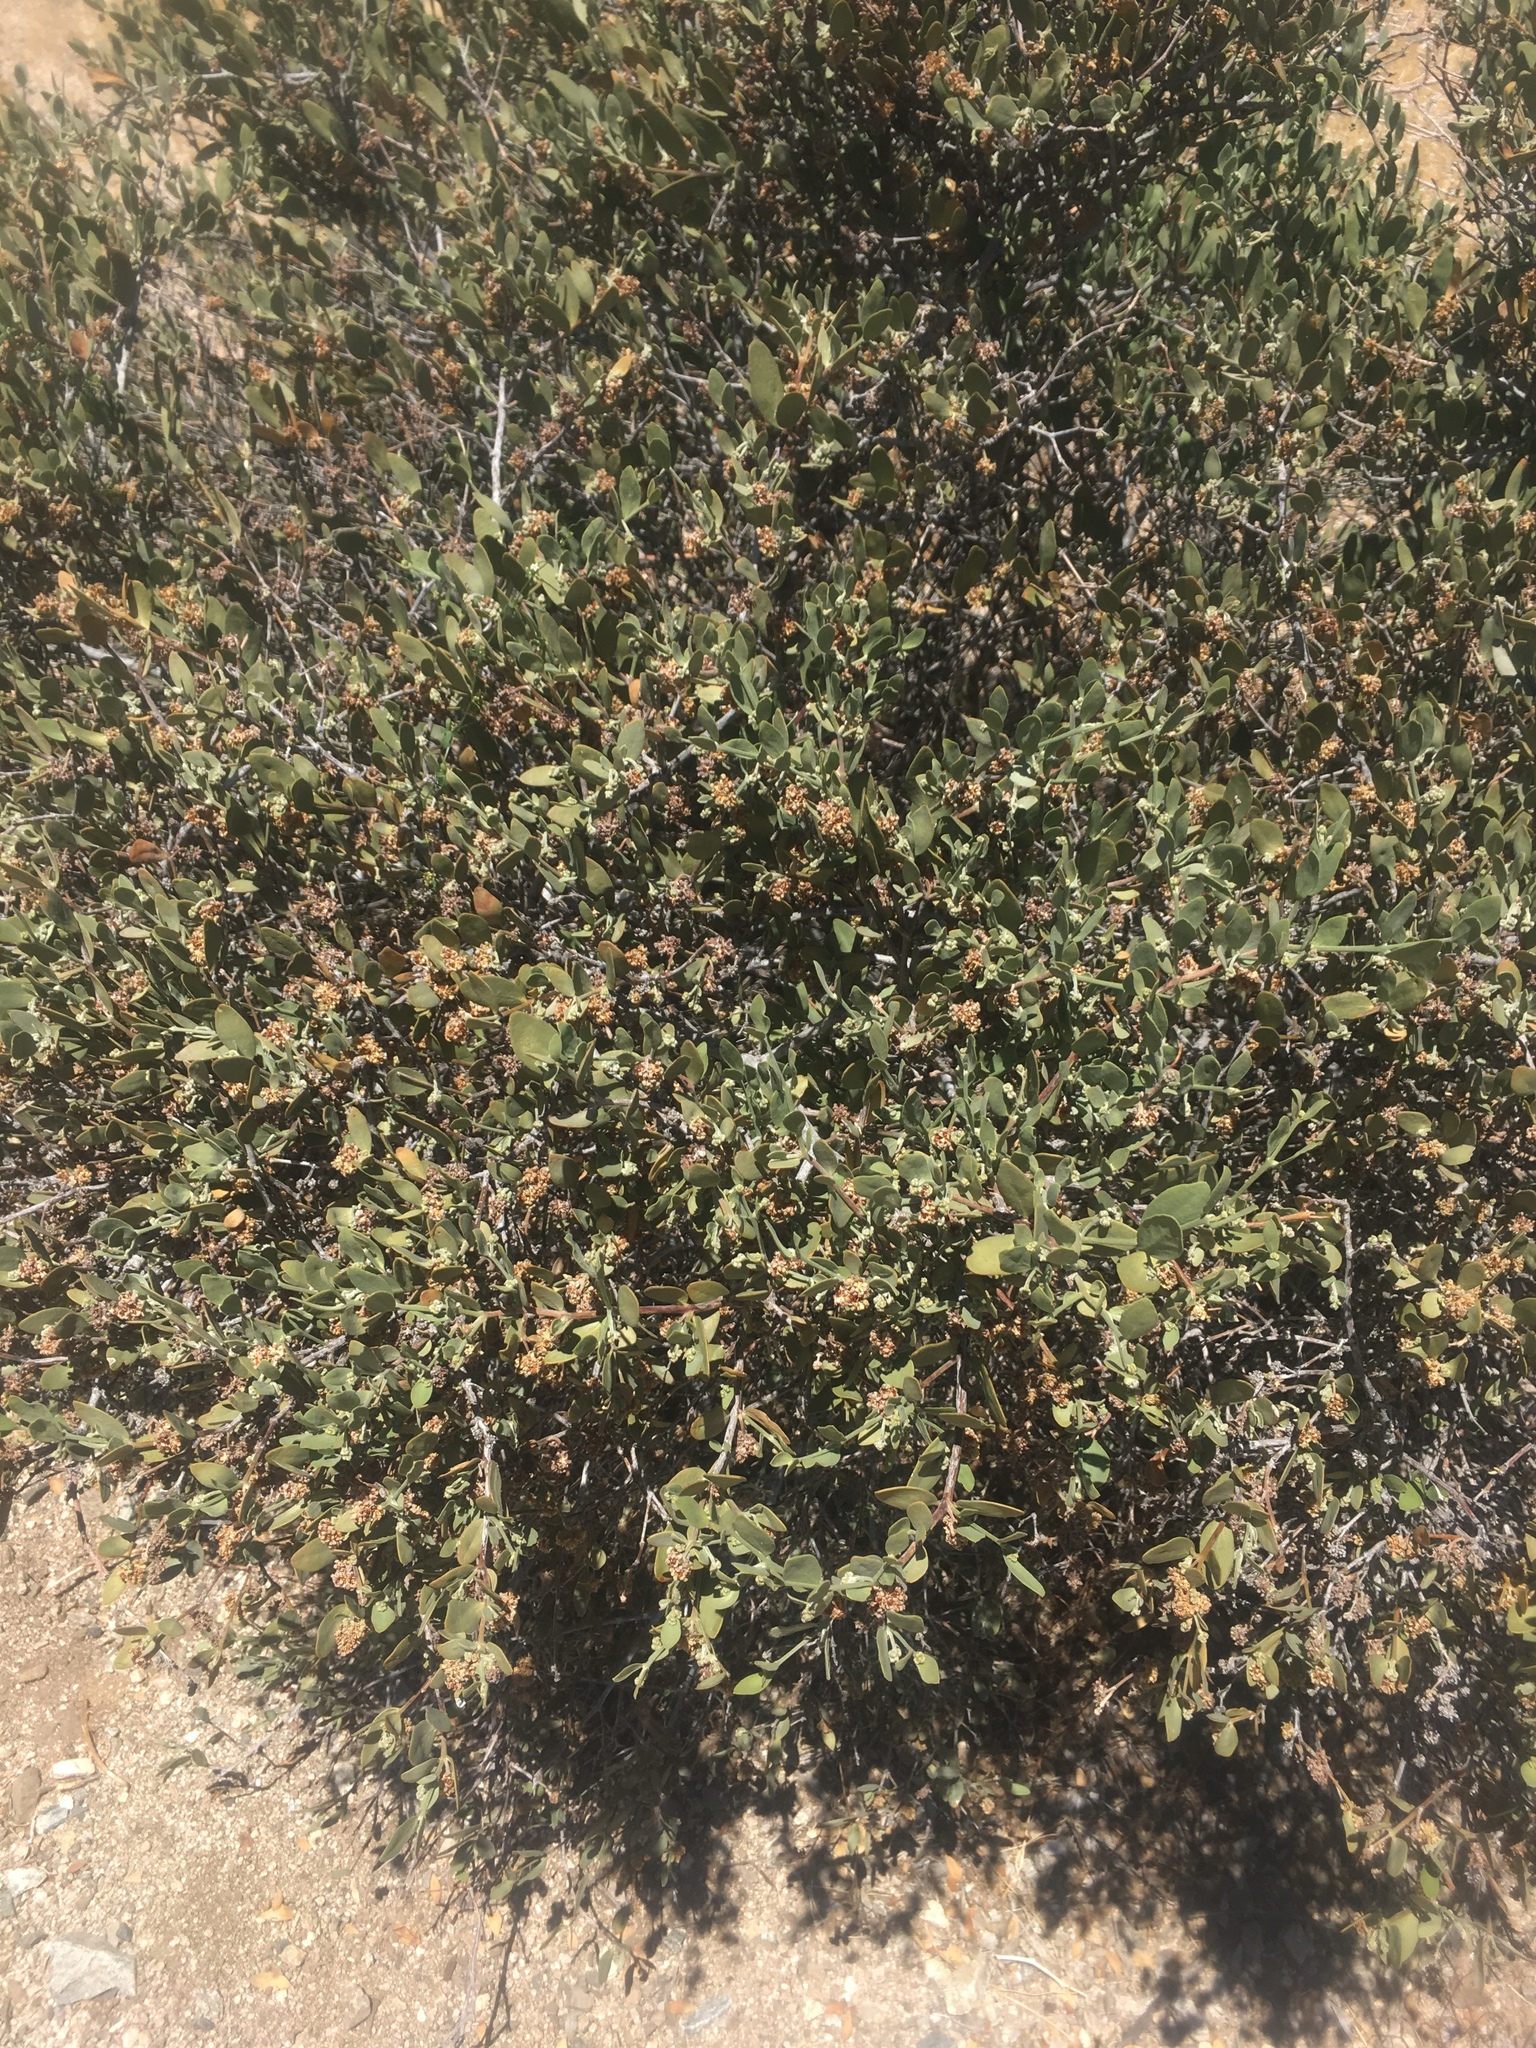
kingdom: Plantae
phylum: Tracheophyta
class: Magnoliopsida
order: Caryophyllales
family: Simmondsiaceae
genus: Simmondsia
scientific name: Simmondsia chinensis
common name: Jojoba
